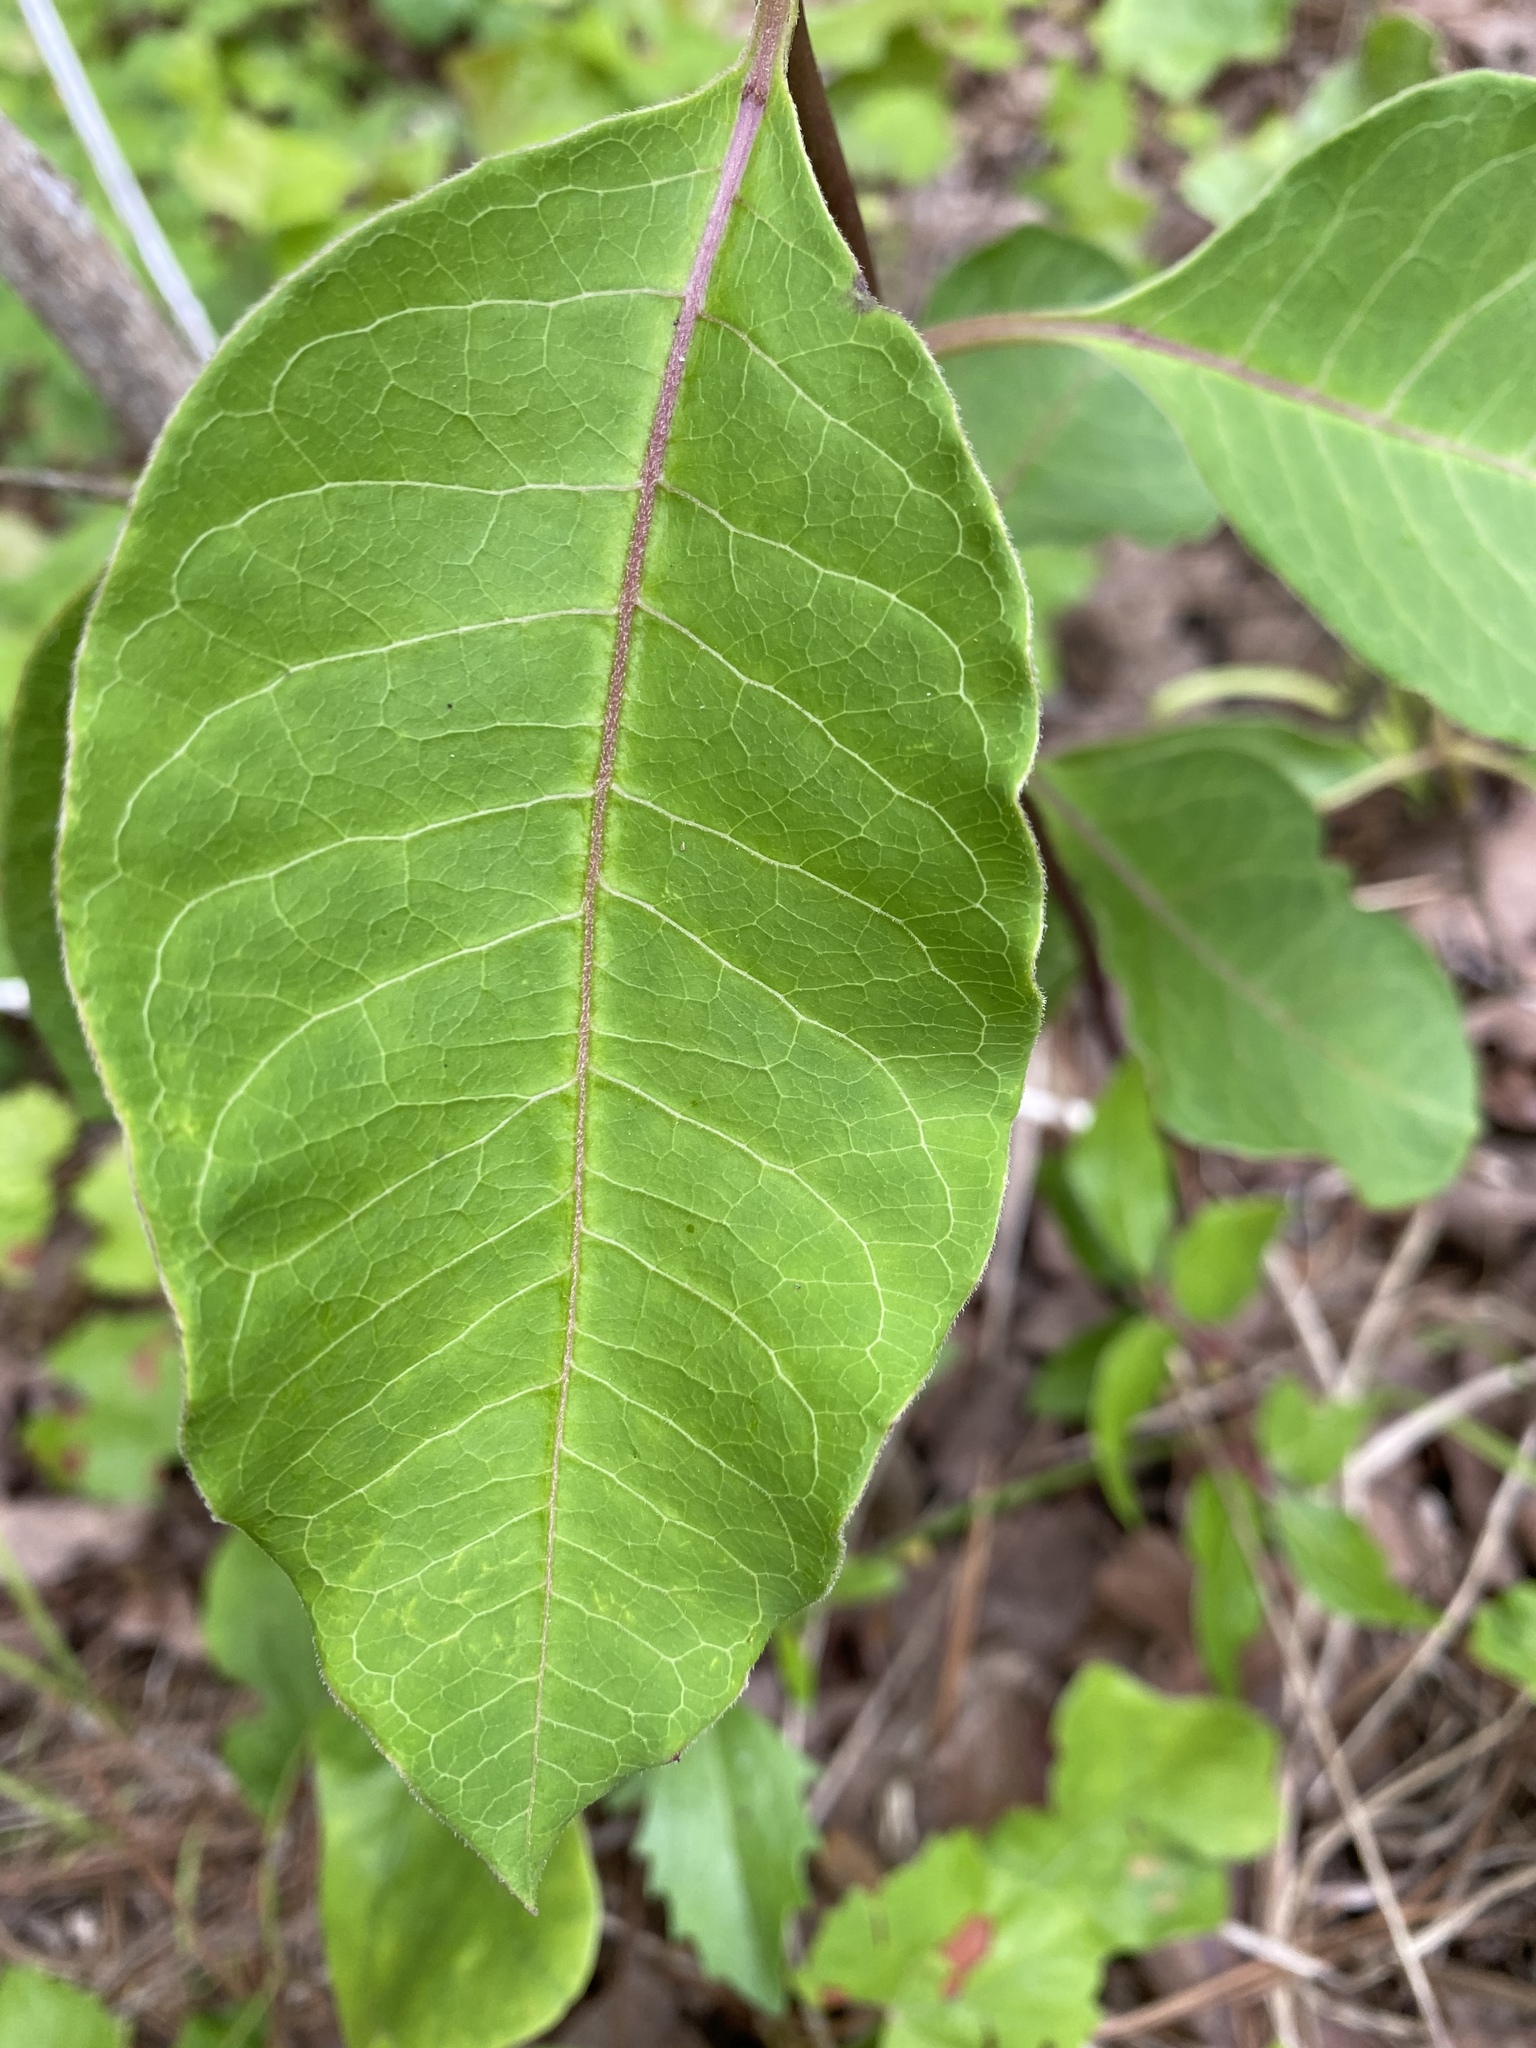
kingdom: Plantae
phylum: Tracheophyta
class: Magnoliopsida
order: Gentianales
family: Apocynaceae
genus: Asclepias
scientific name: Asclepias variegata
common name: Variegated milkweed
